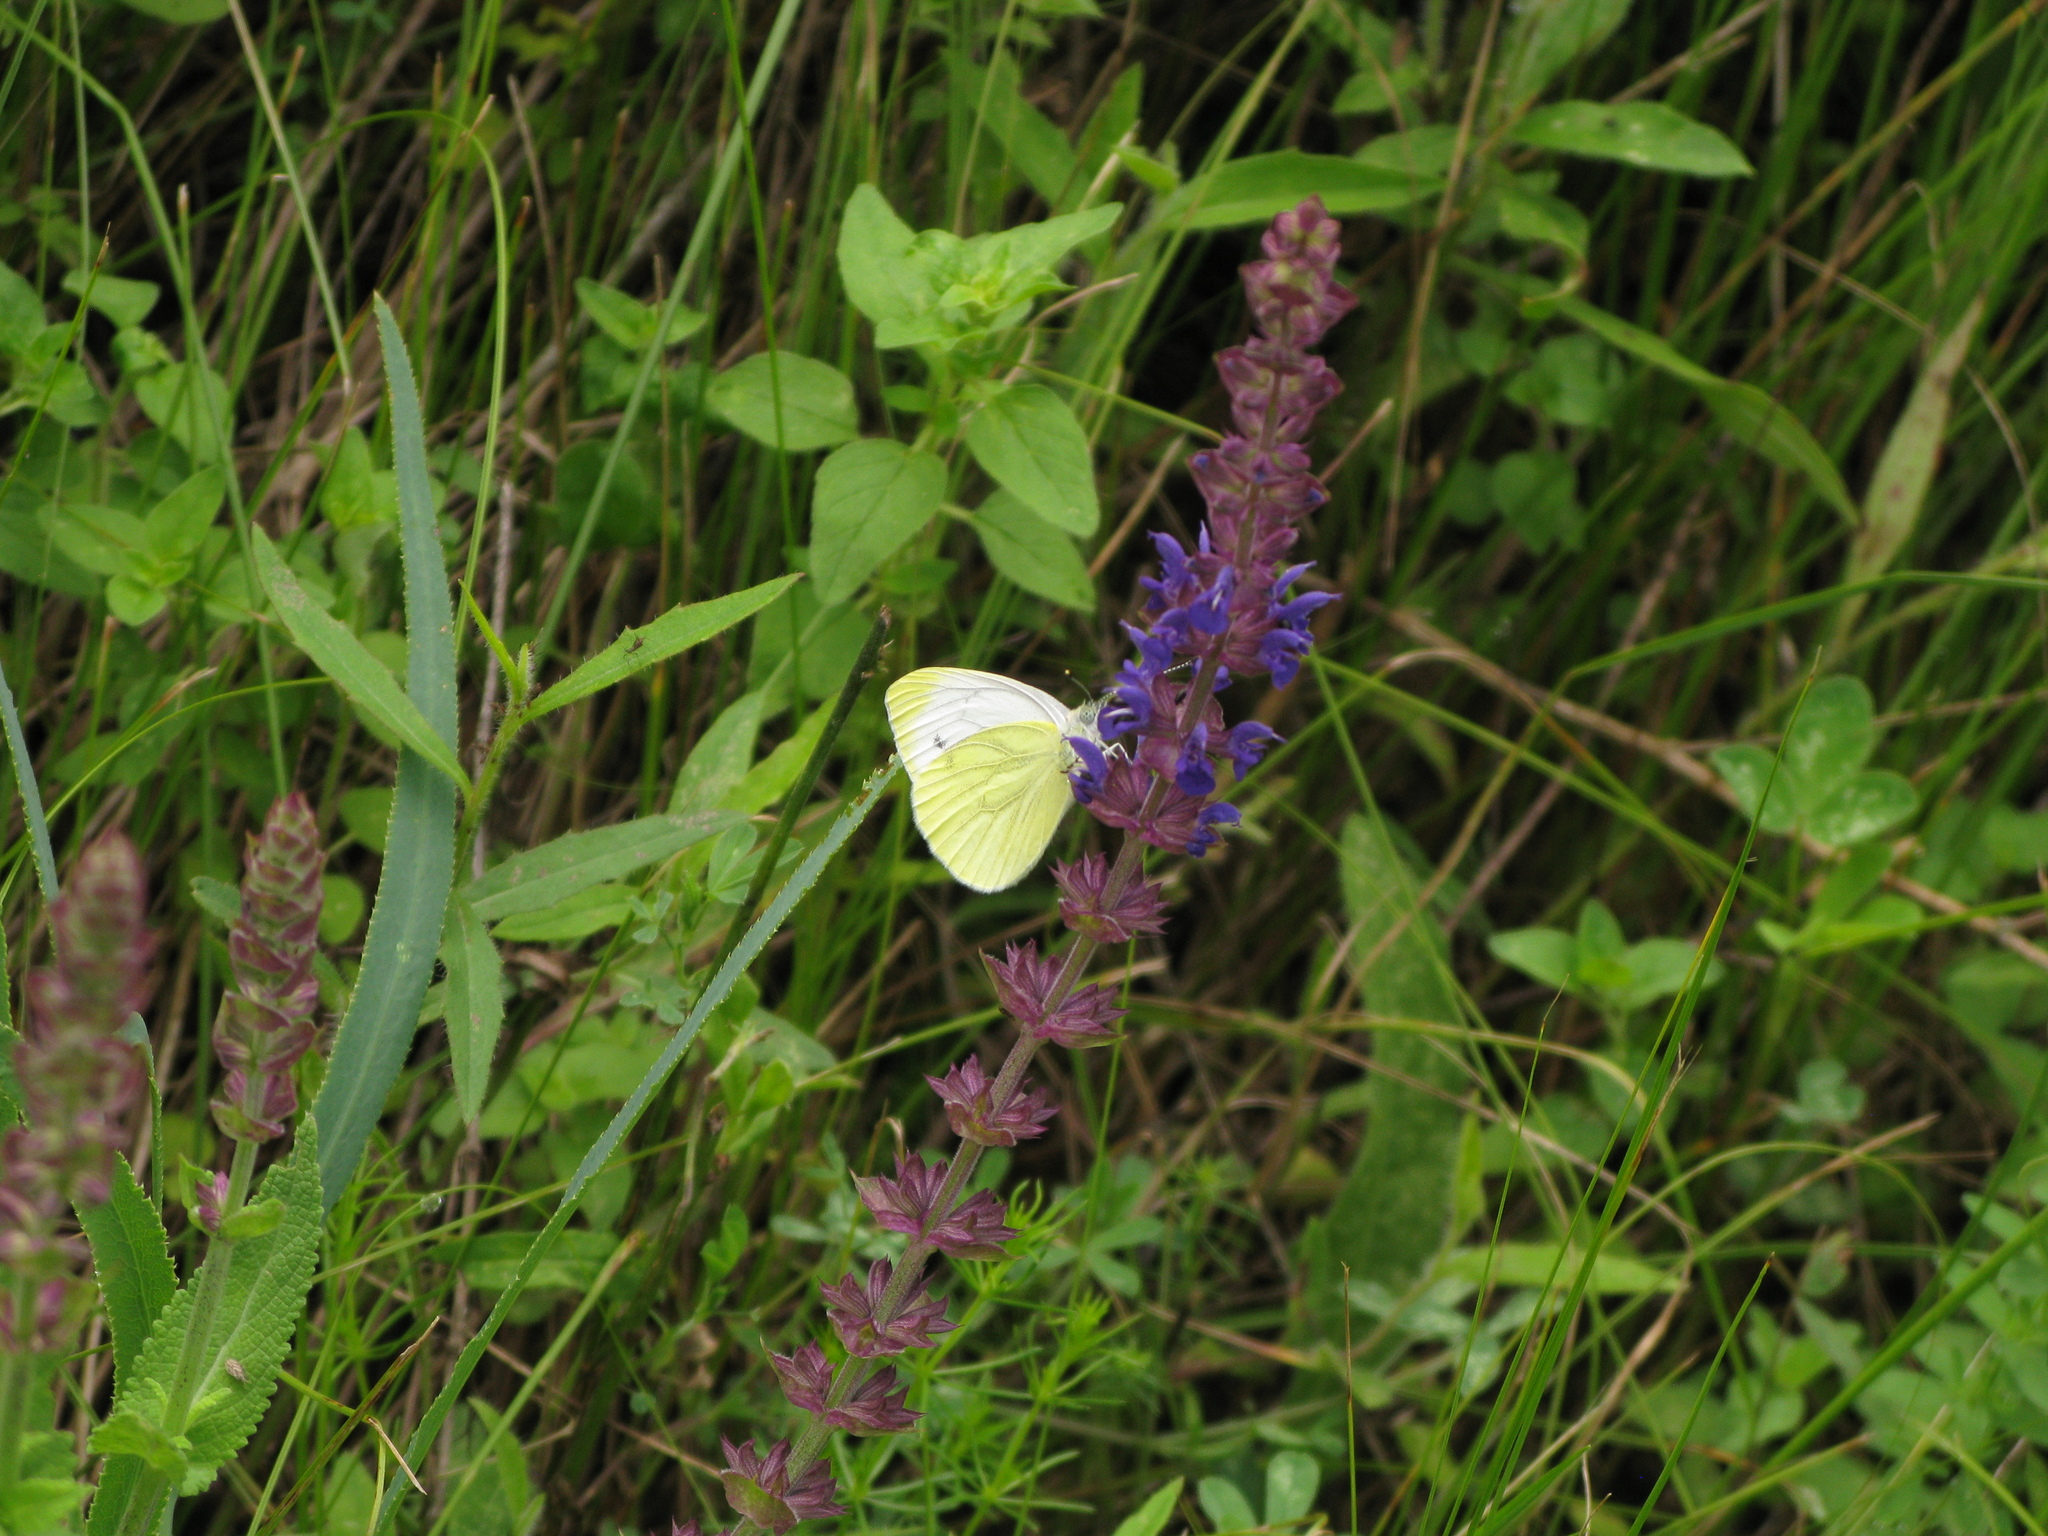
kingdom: Animalia
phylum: Arthropoda
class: Insecta
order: Lepidoptera
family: Pieridae
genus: Pieris
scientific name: Pieris napi
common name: Green-veined white
